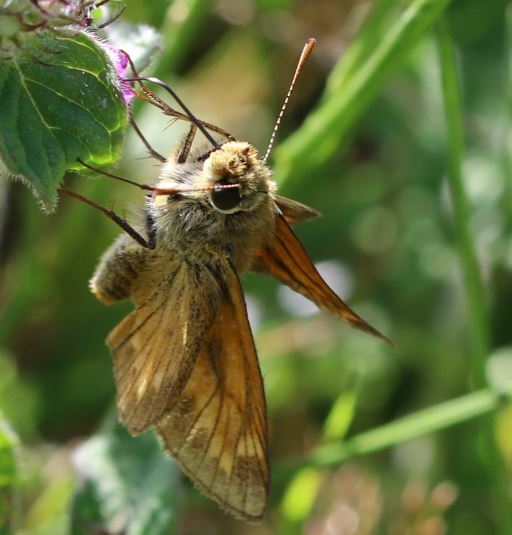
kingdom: Animalia
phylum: Arthropoda
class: Insecta
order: Lepidoptera
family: Hesperiidae
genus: Ochlodes
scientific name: Ochlodes venata
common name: Large skipper
